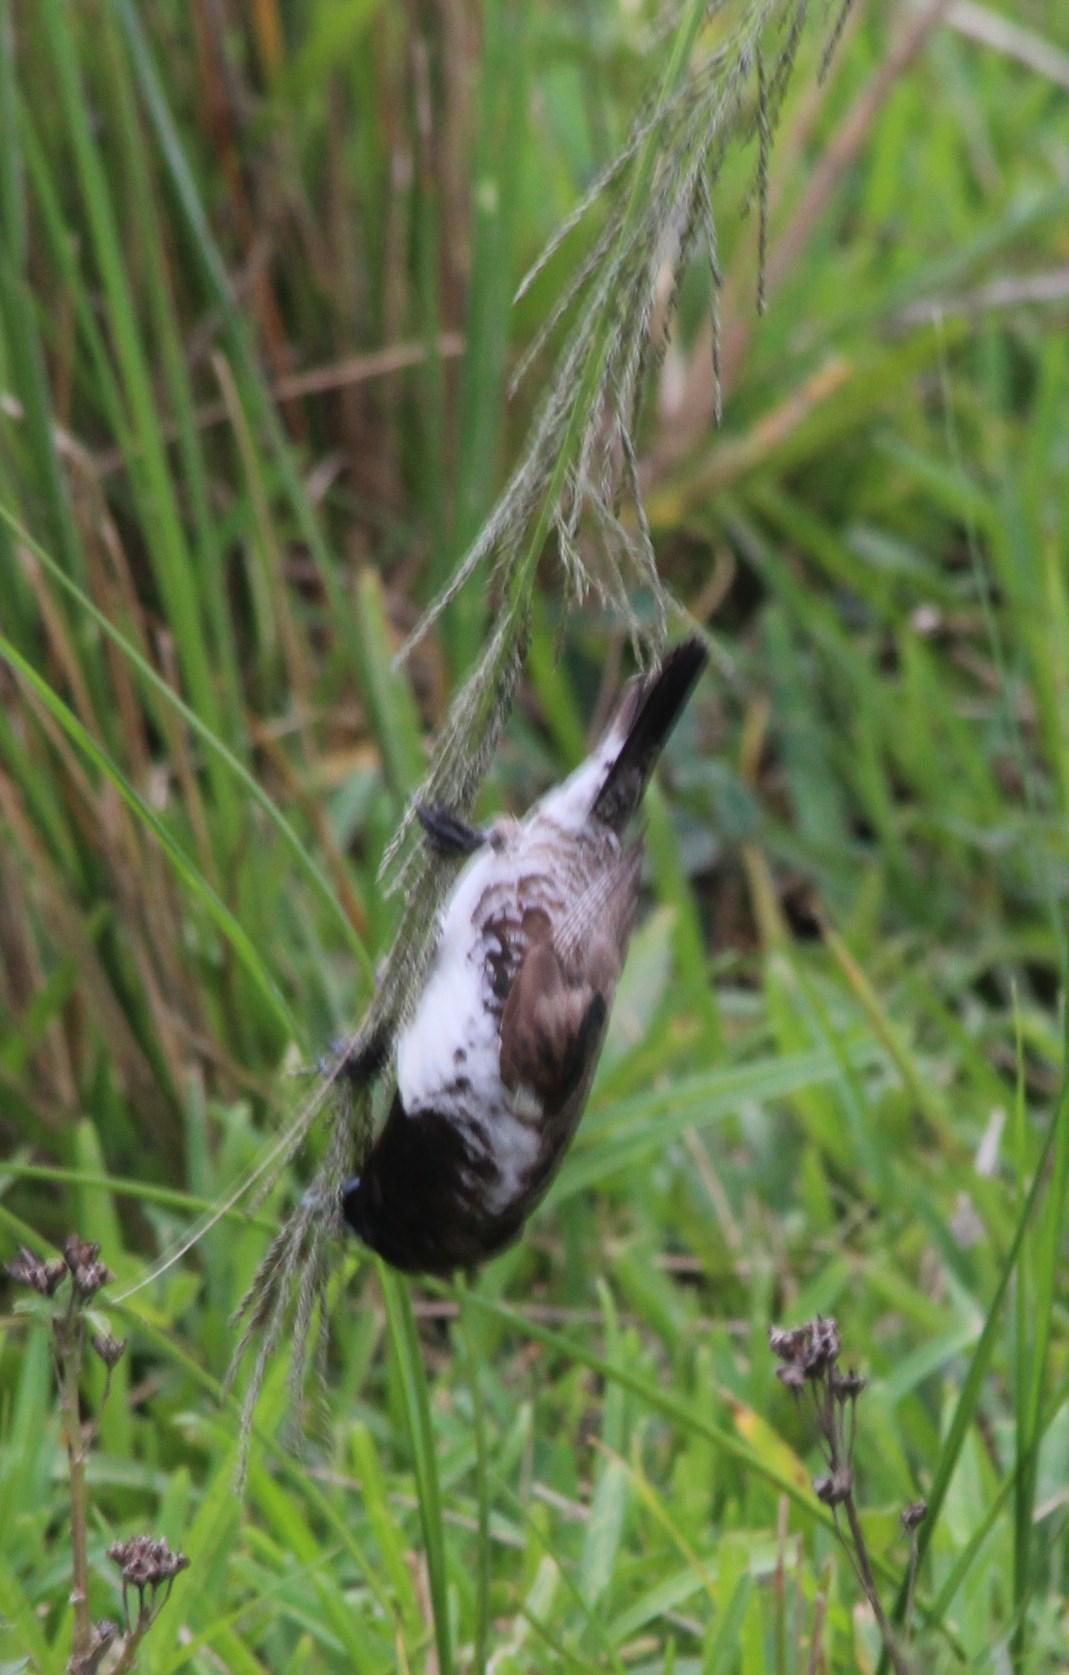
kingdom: Animalia
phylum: Chordata
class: Aves
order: Passeriformes
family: Estrildidae
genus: Lonchura
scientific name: Lonchura cucullata
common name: Bronze mannikin
